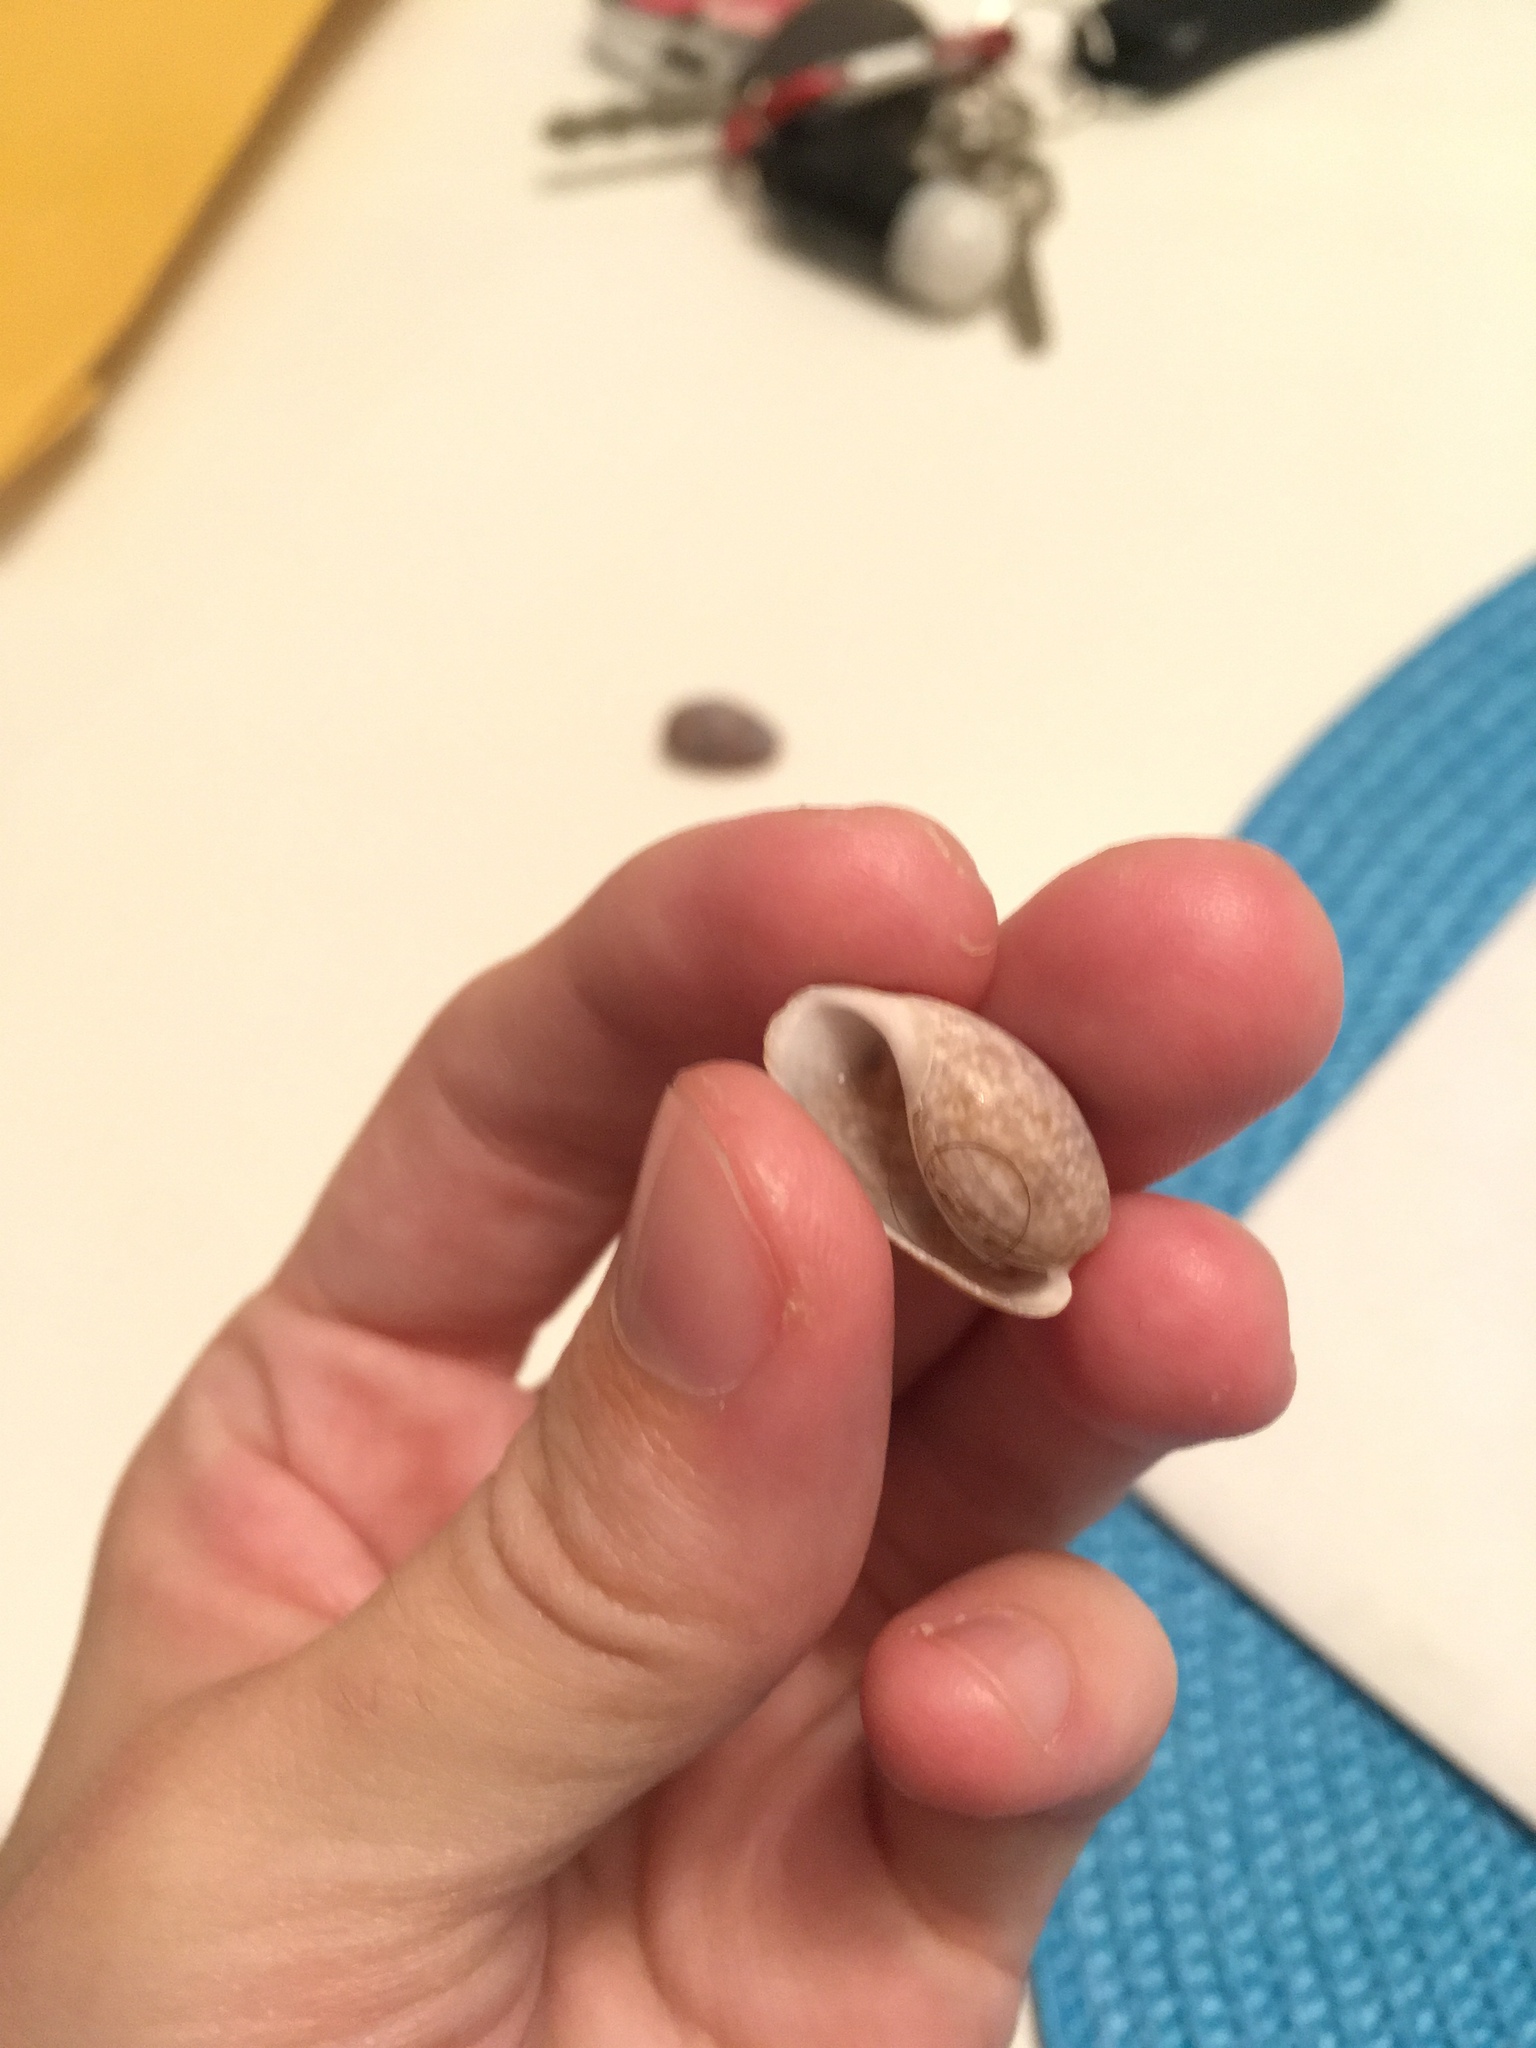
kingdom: Animalia
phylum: Mollusca
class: Gastropoda
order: Cephalaspidea
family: Bullidae
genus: Bulla
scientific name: Bulla occidentalis
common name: Common west-indian bubble
